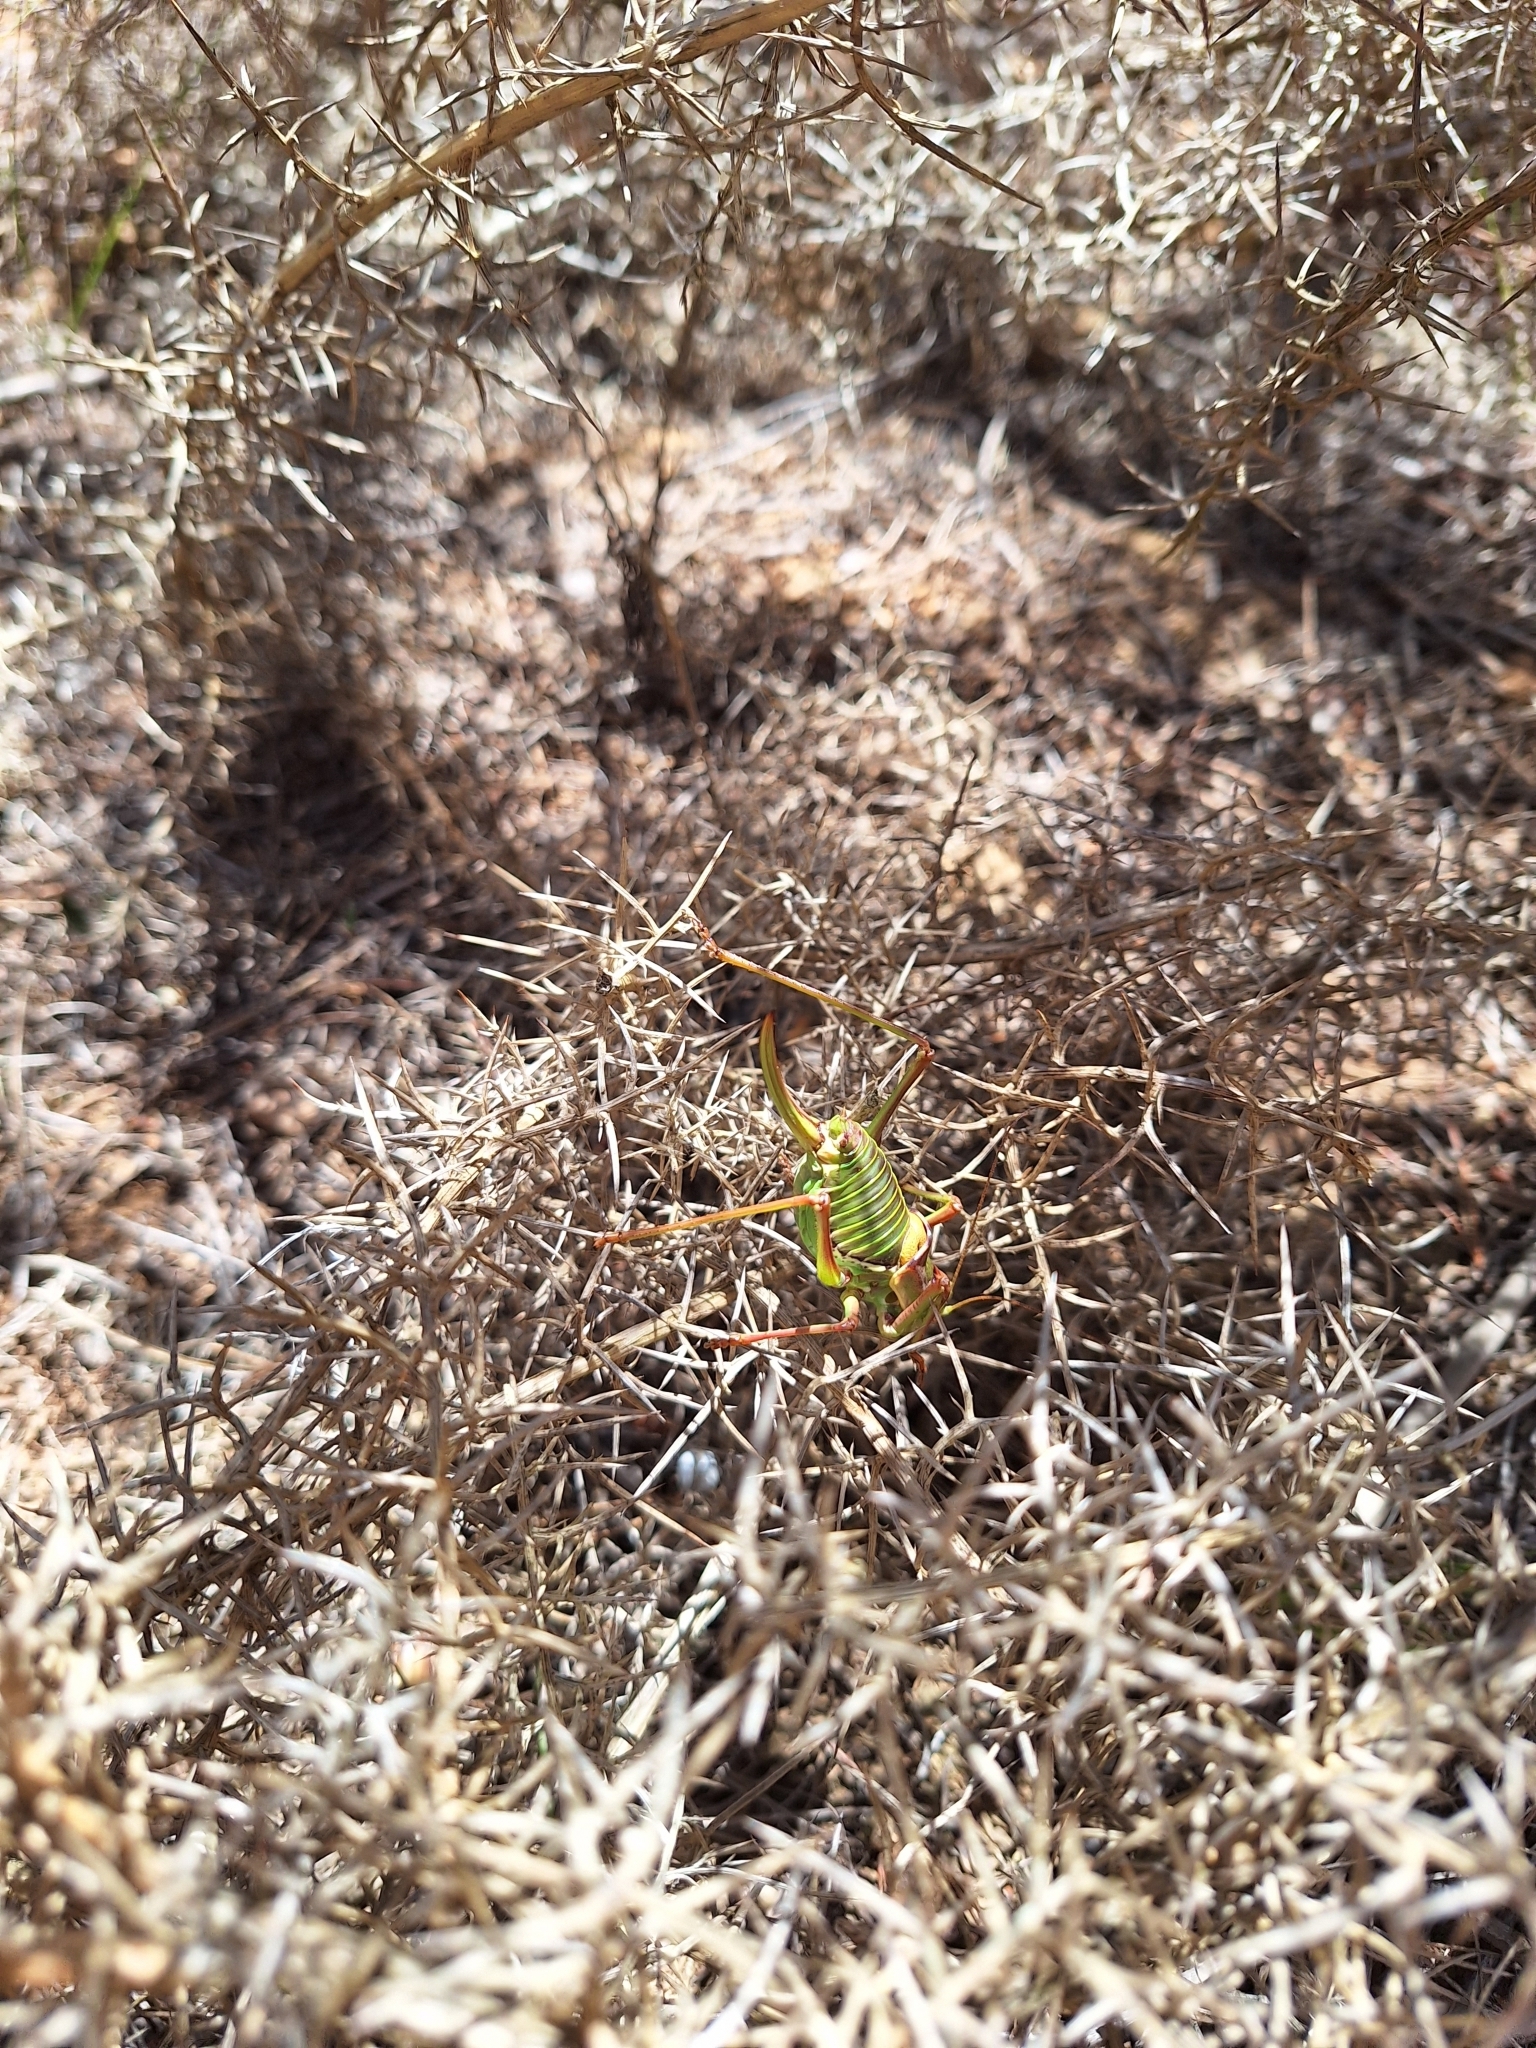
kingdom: Animalia
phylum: Arthropoda
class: Insecta
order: Orthoptera
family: Tettigoniidae
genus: Parasteropleurus
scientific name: Parasteropleurus perezii
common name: Perez's saddle bush-cricke
